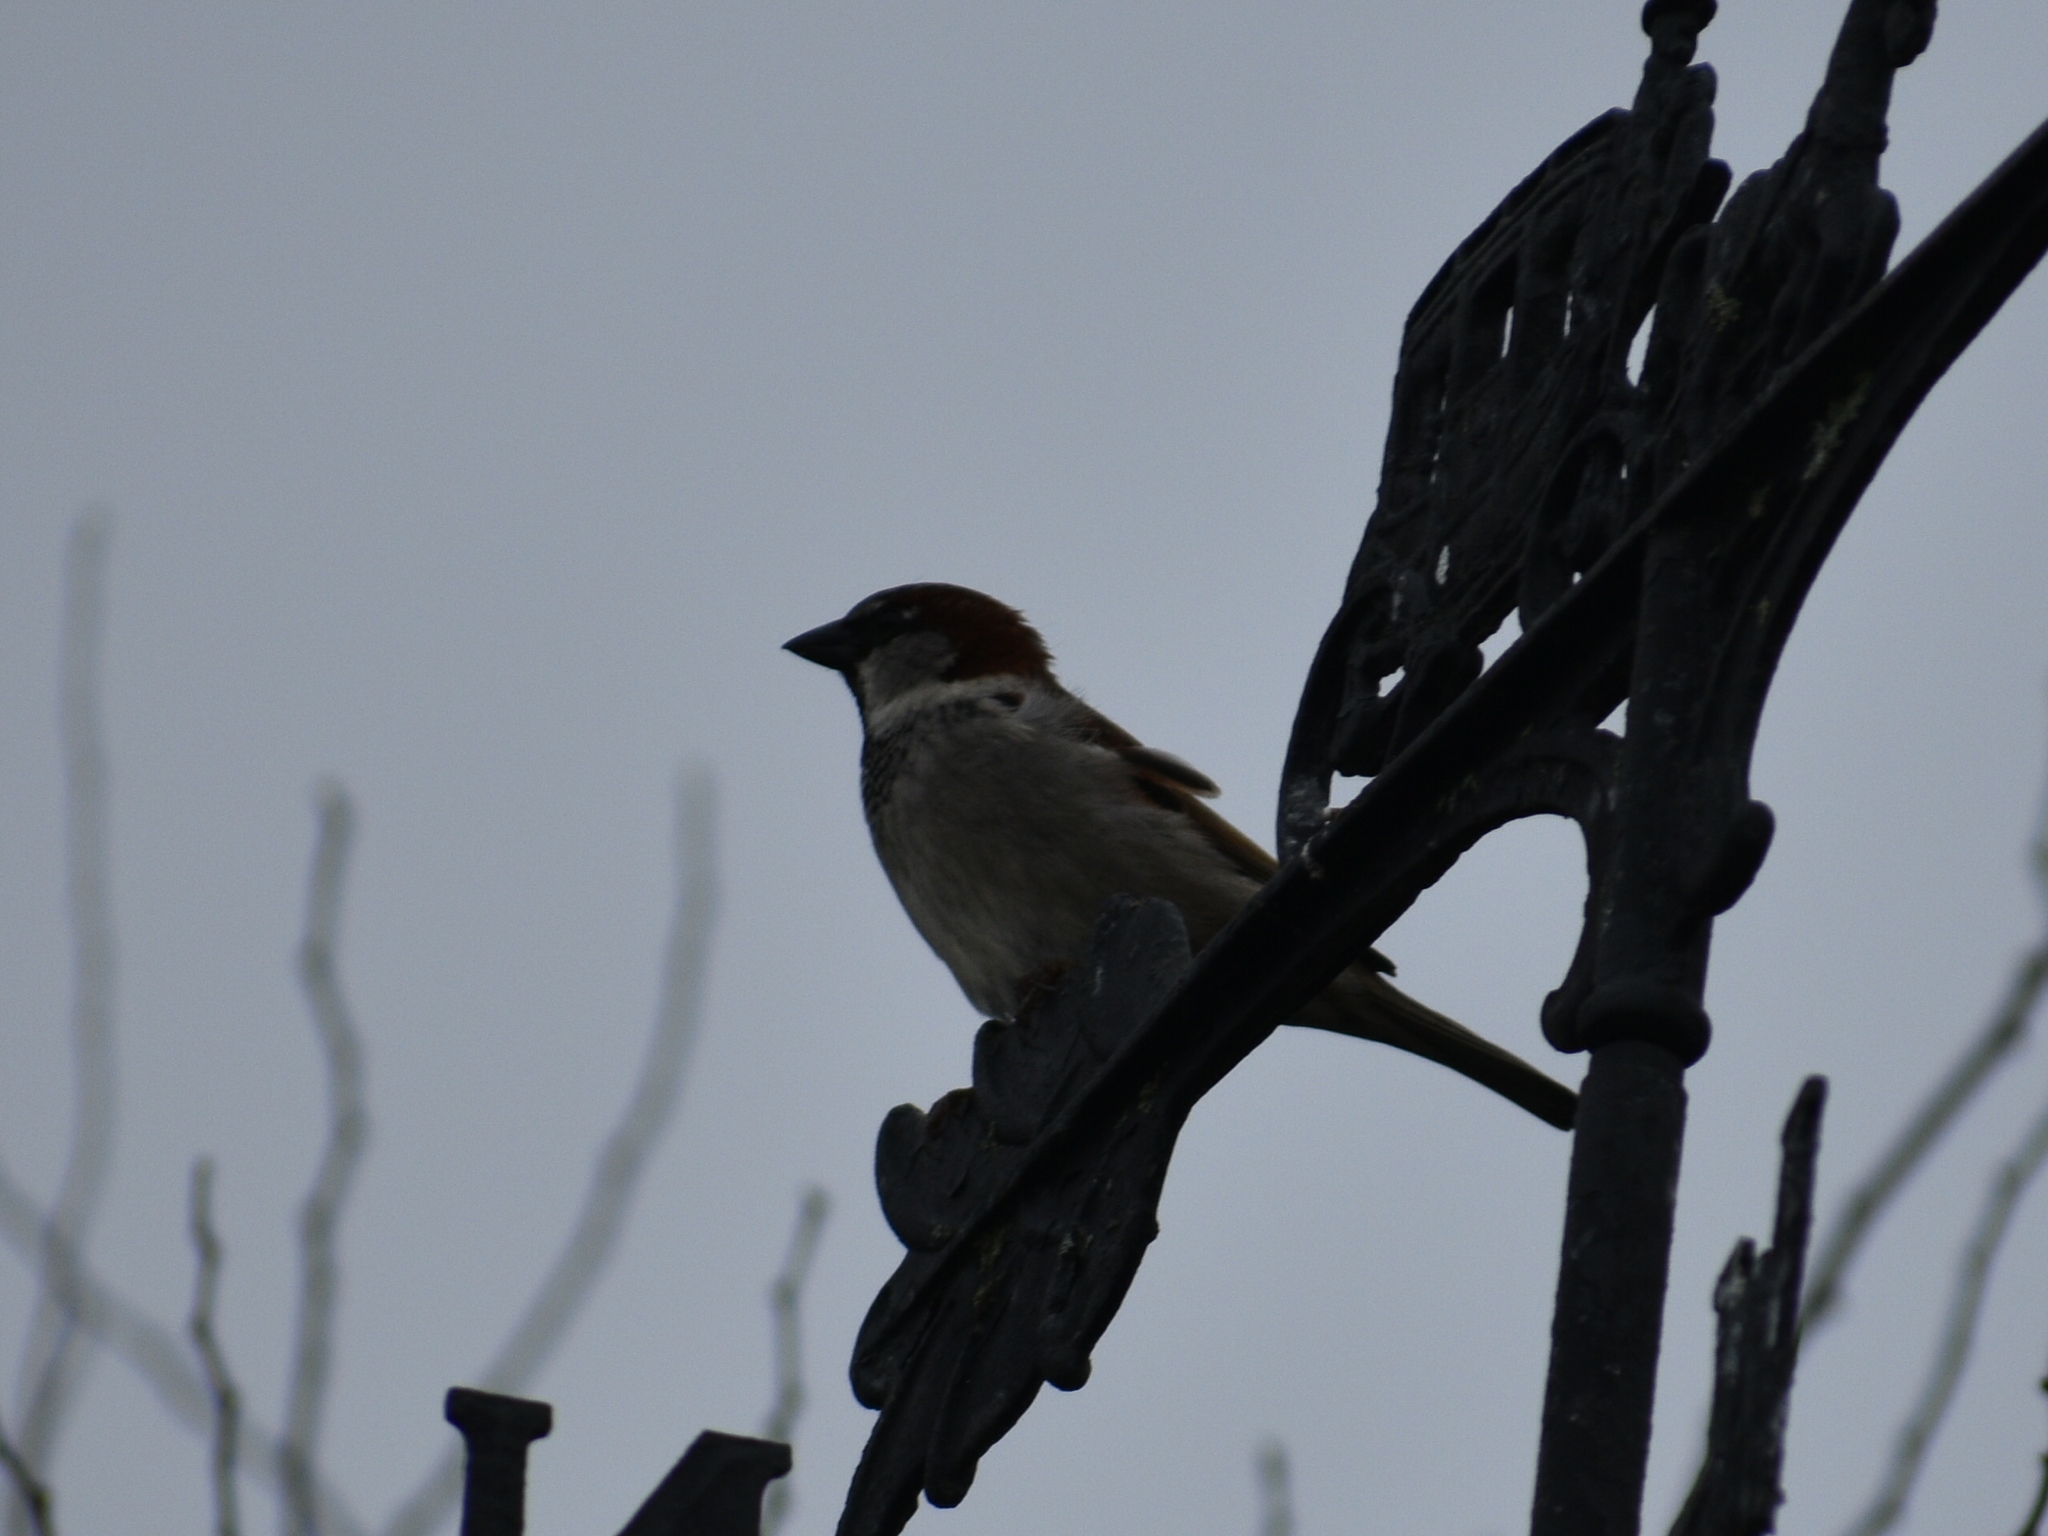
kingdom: Animalia
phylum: Chordata
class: Aves
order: Passeriformes
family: Passeridae
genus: Passer
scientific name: Passer domesticus
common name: House sparrow
